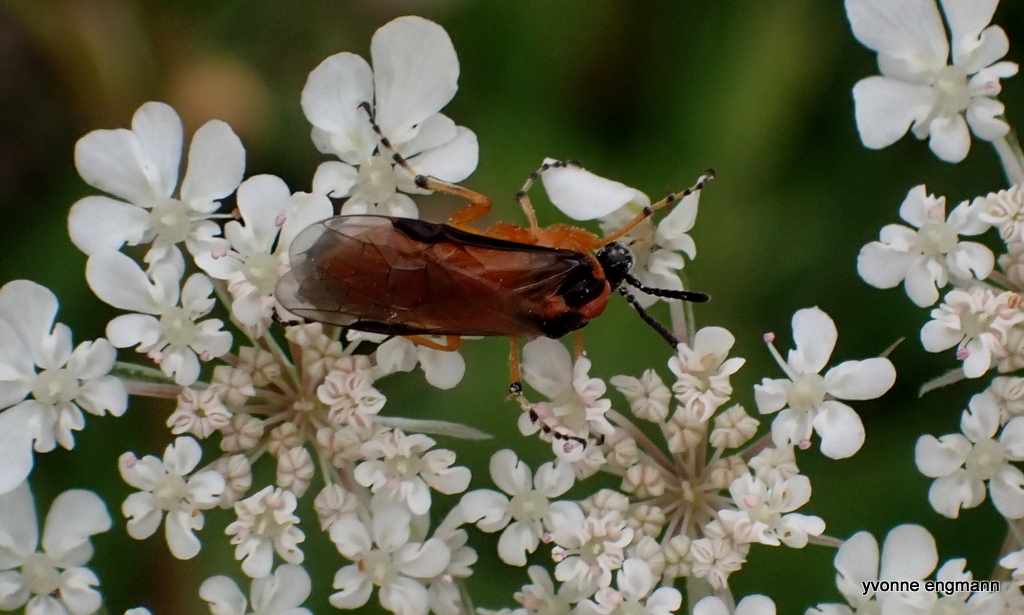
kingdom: Animalia
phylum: Arthropoda
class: Insecta
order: Hymenoptera
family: Tenthredinidae
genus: Athalia
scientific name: Athalia rosae
